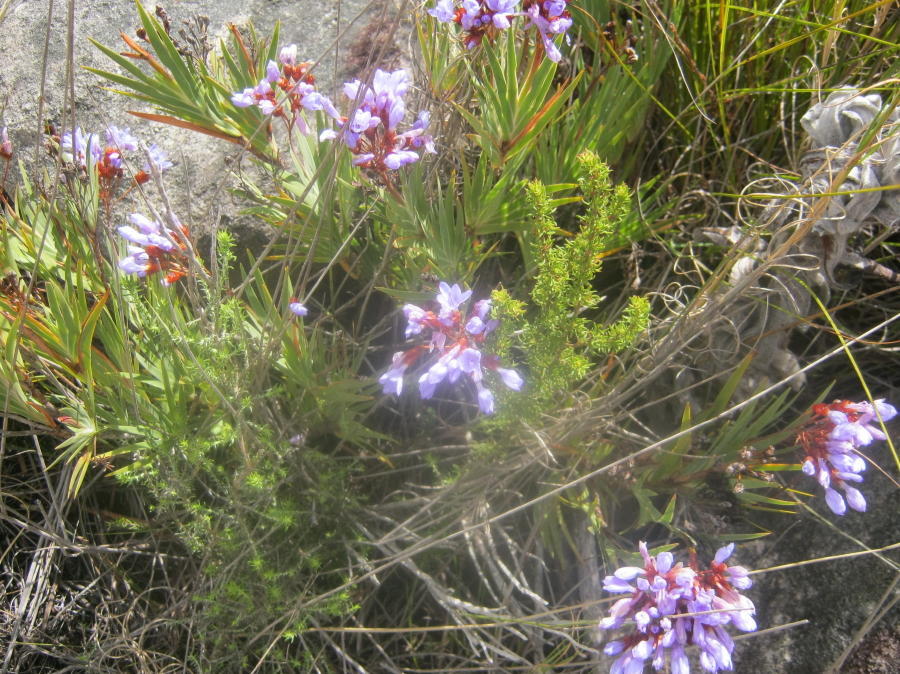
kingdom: Plantae
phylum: Tracheophyta
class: Liliopsida
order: Asparagales
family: Iridaceae
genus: Nivenia
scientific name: Nivenia binata
